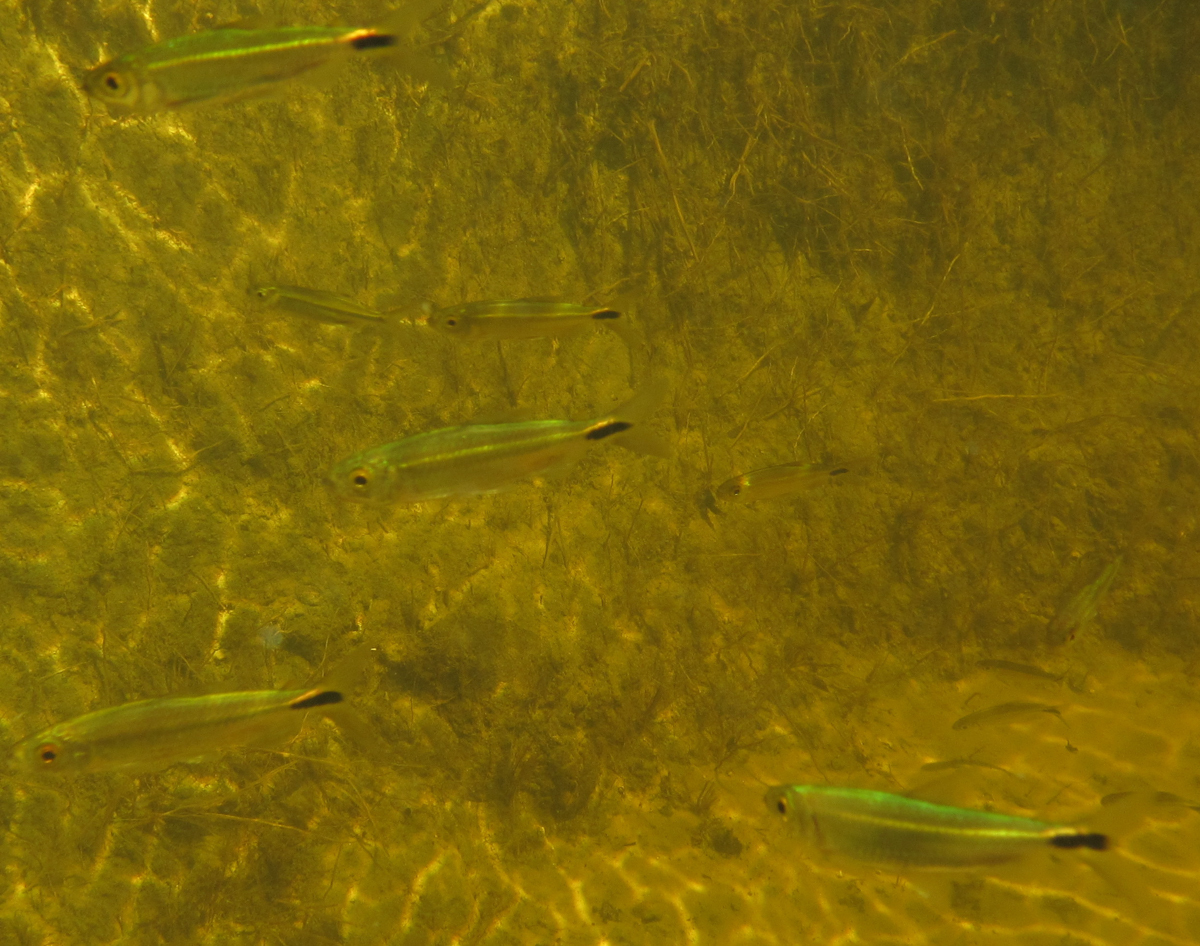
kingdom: Animalia
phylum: Chordata
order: Characiformes
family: Alestidae
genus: Alestes
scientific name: Alestes
